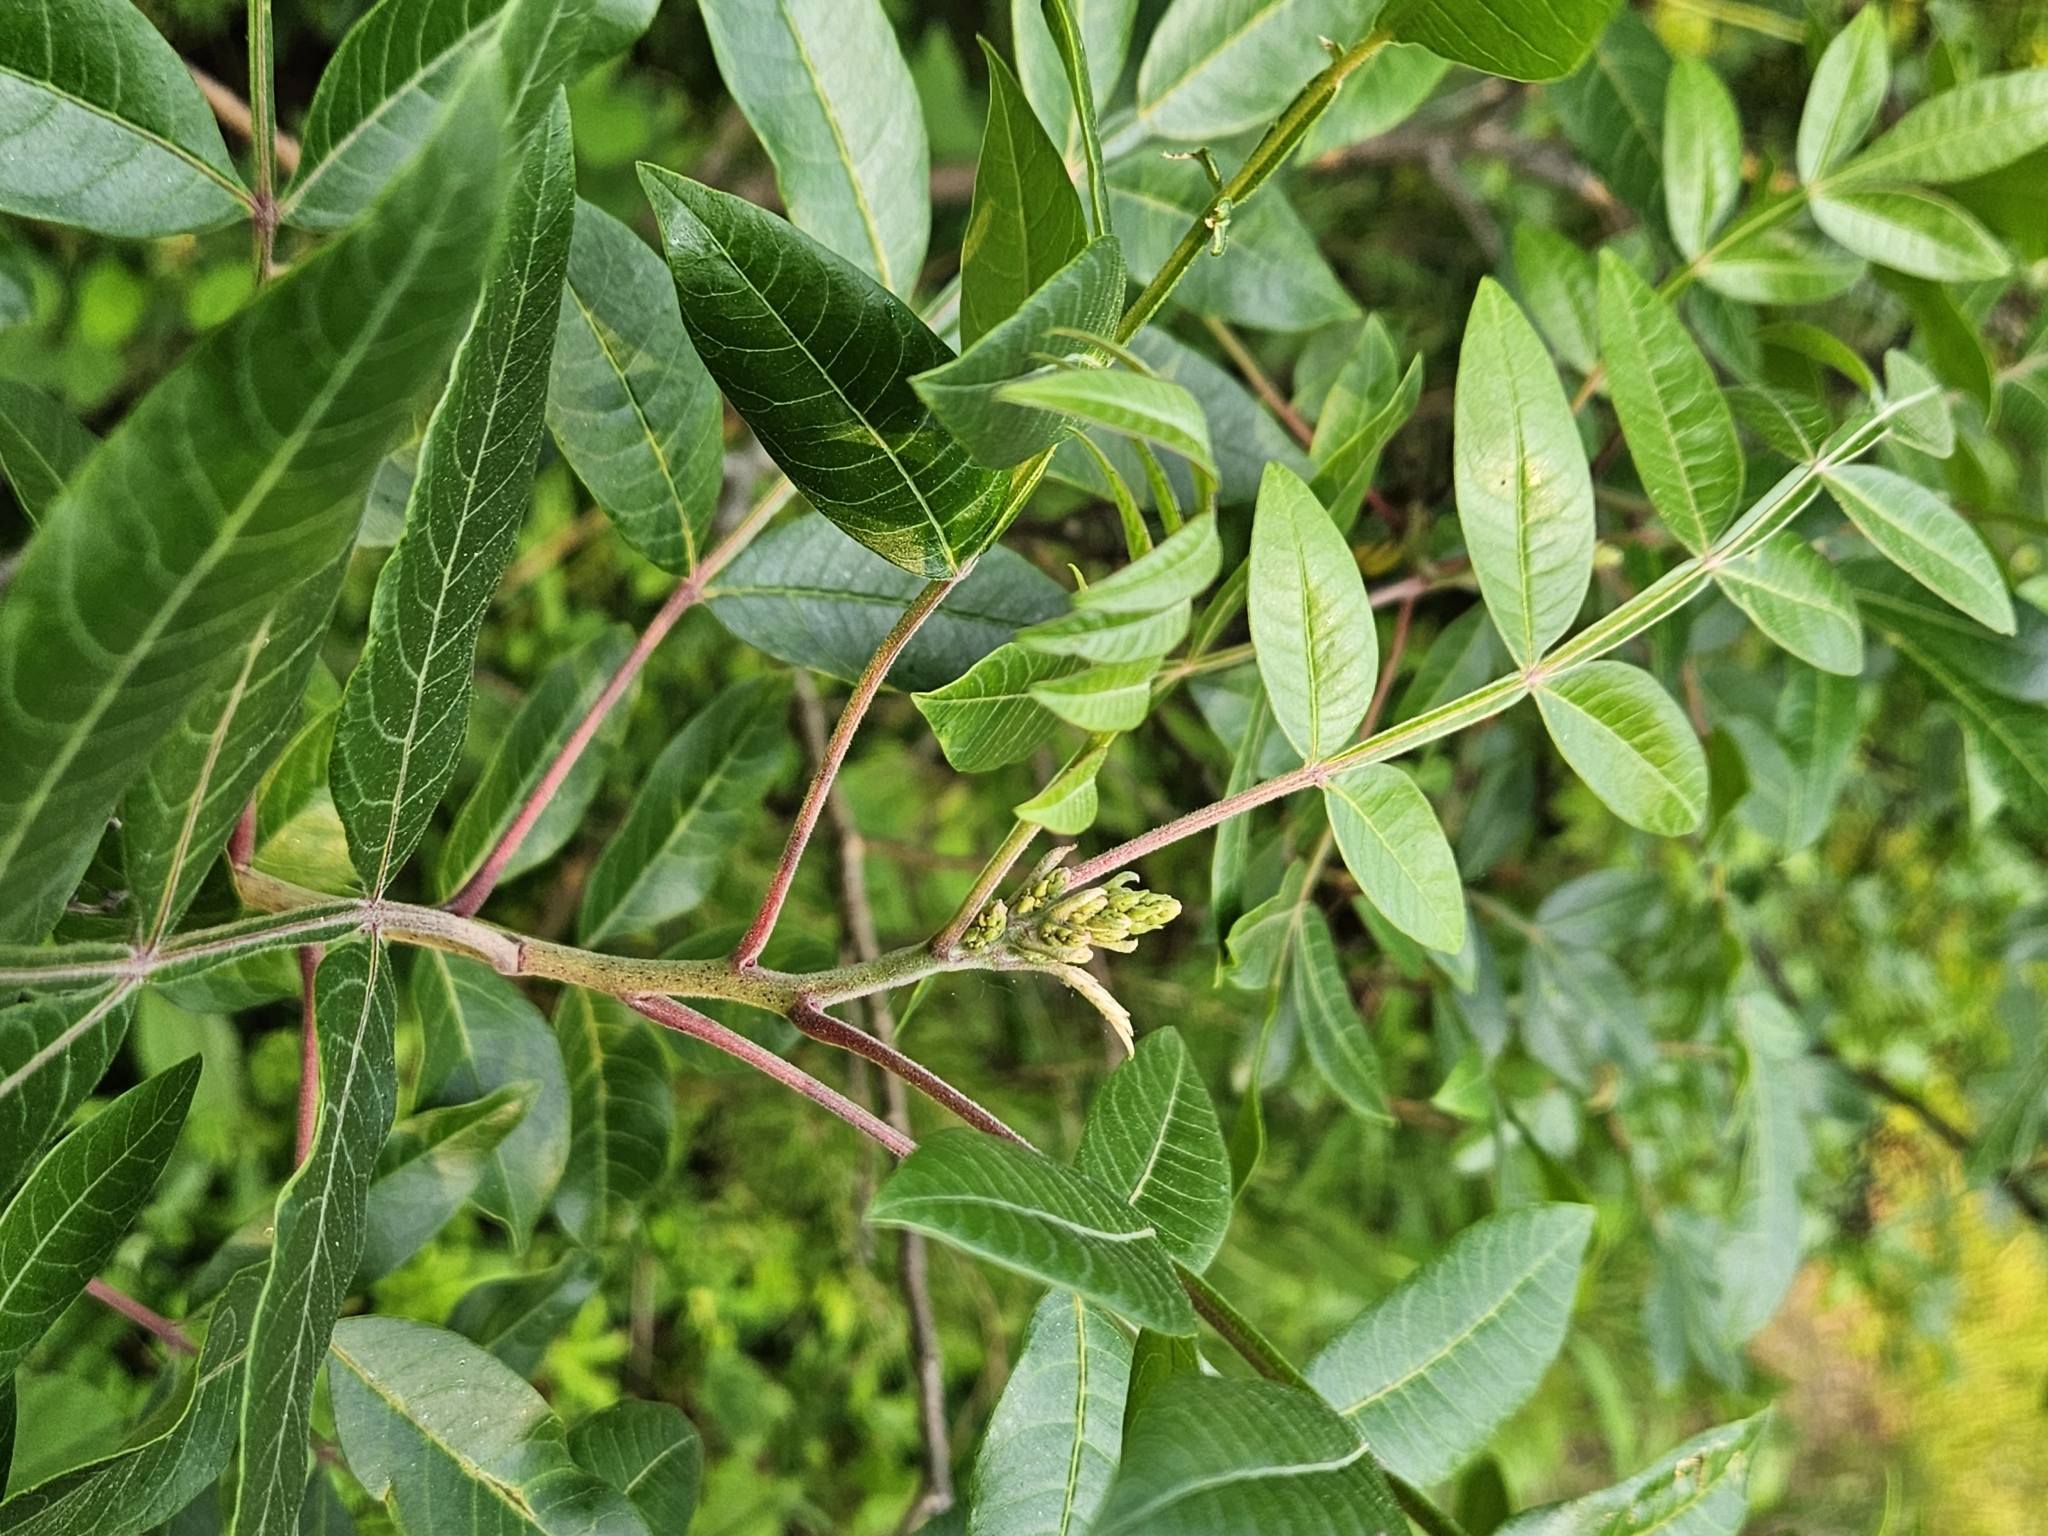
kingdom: Plantae
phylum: Tracheophyta
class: Magnoliopsida
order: Sapindales
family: Anacardiaceae
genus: Rhus
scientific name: Rhus copallina
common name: Shining sumac
